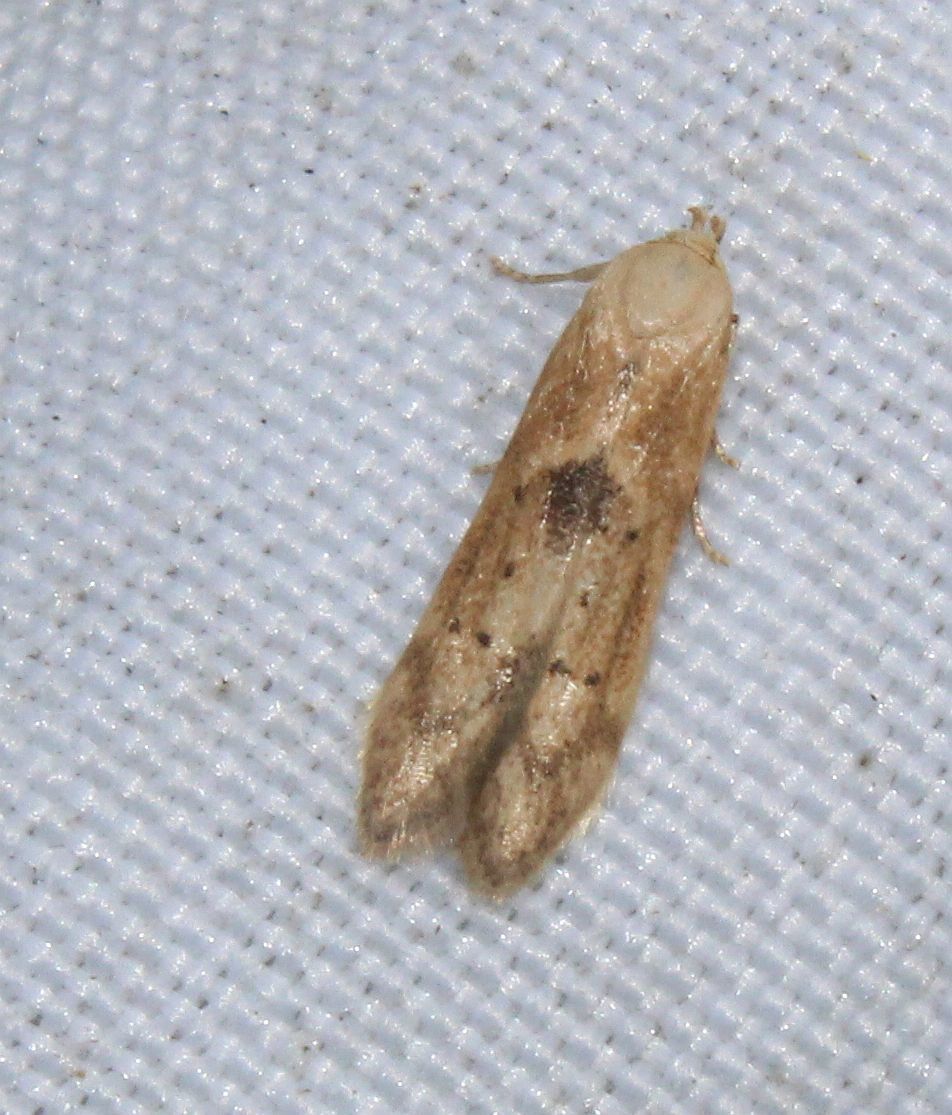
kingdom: Animalia
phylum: Arthropoda
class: Insecta
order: Lepidoptera
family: Blastobasidae
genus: Blastobasis
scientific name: Blastobasis lacticolella
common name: London dowd
